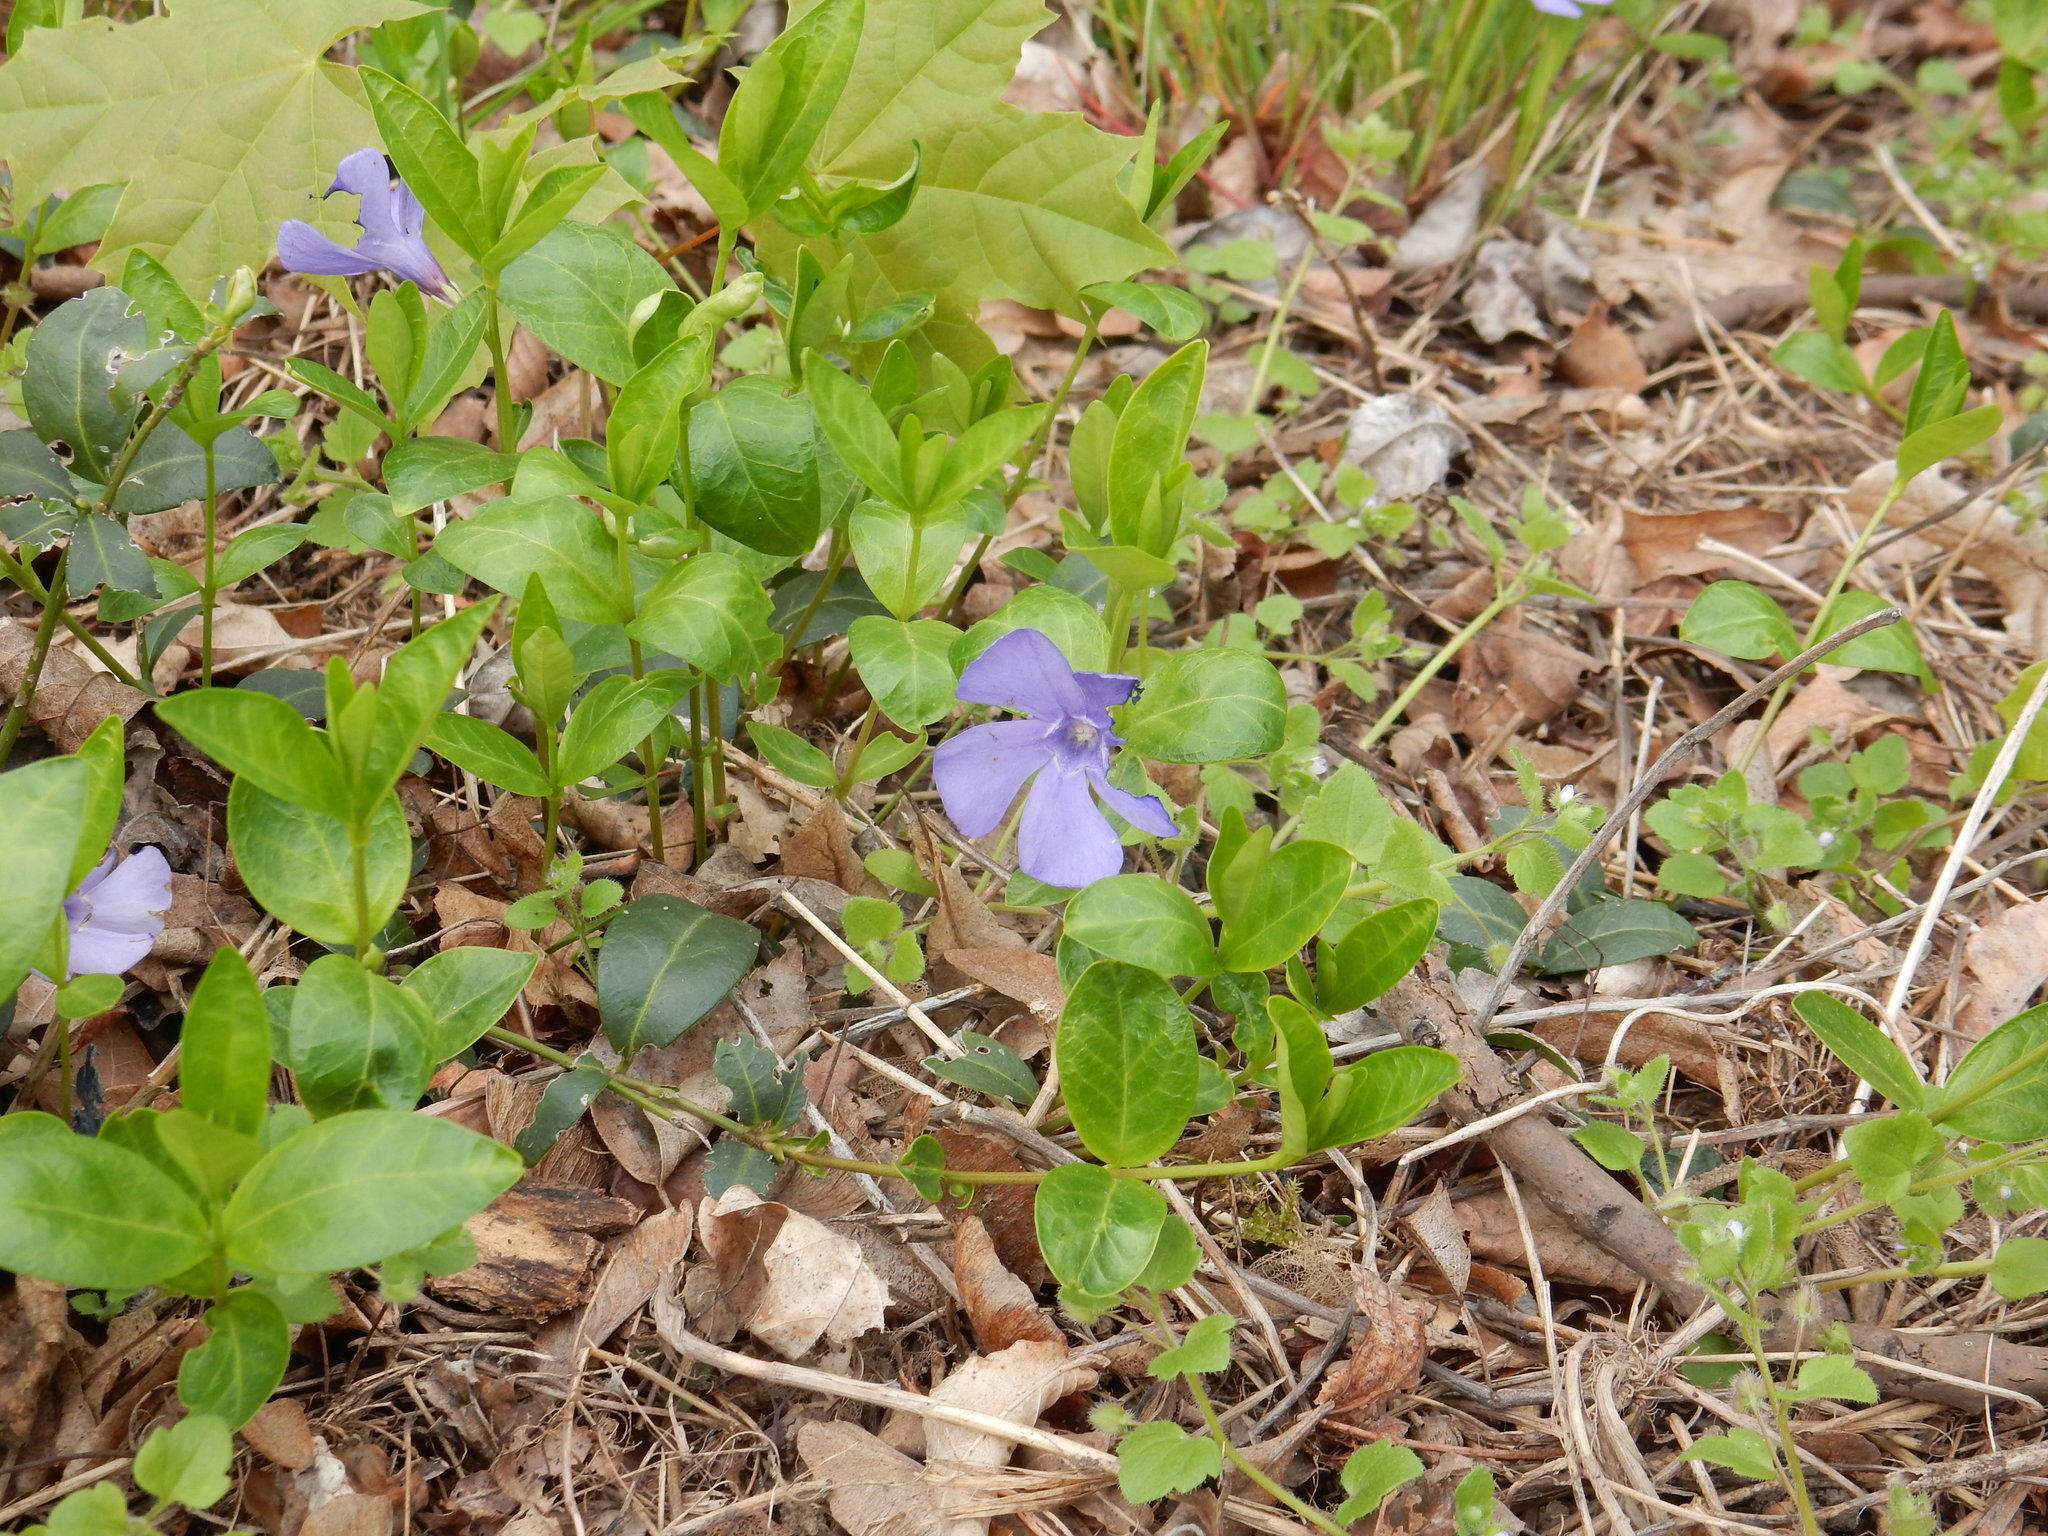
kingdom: Plantae
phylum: Tracheophyta
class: Magnoliopsida
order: Gentianales
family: Apocynaceae
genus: Vinca
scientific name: Vinca minor
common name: Lesser periwinkle
